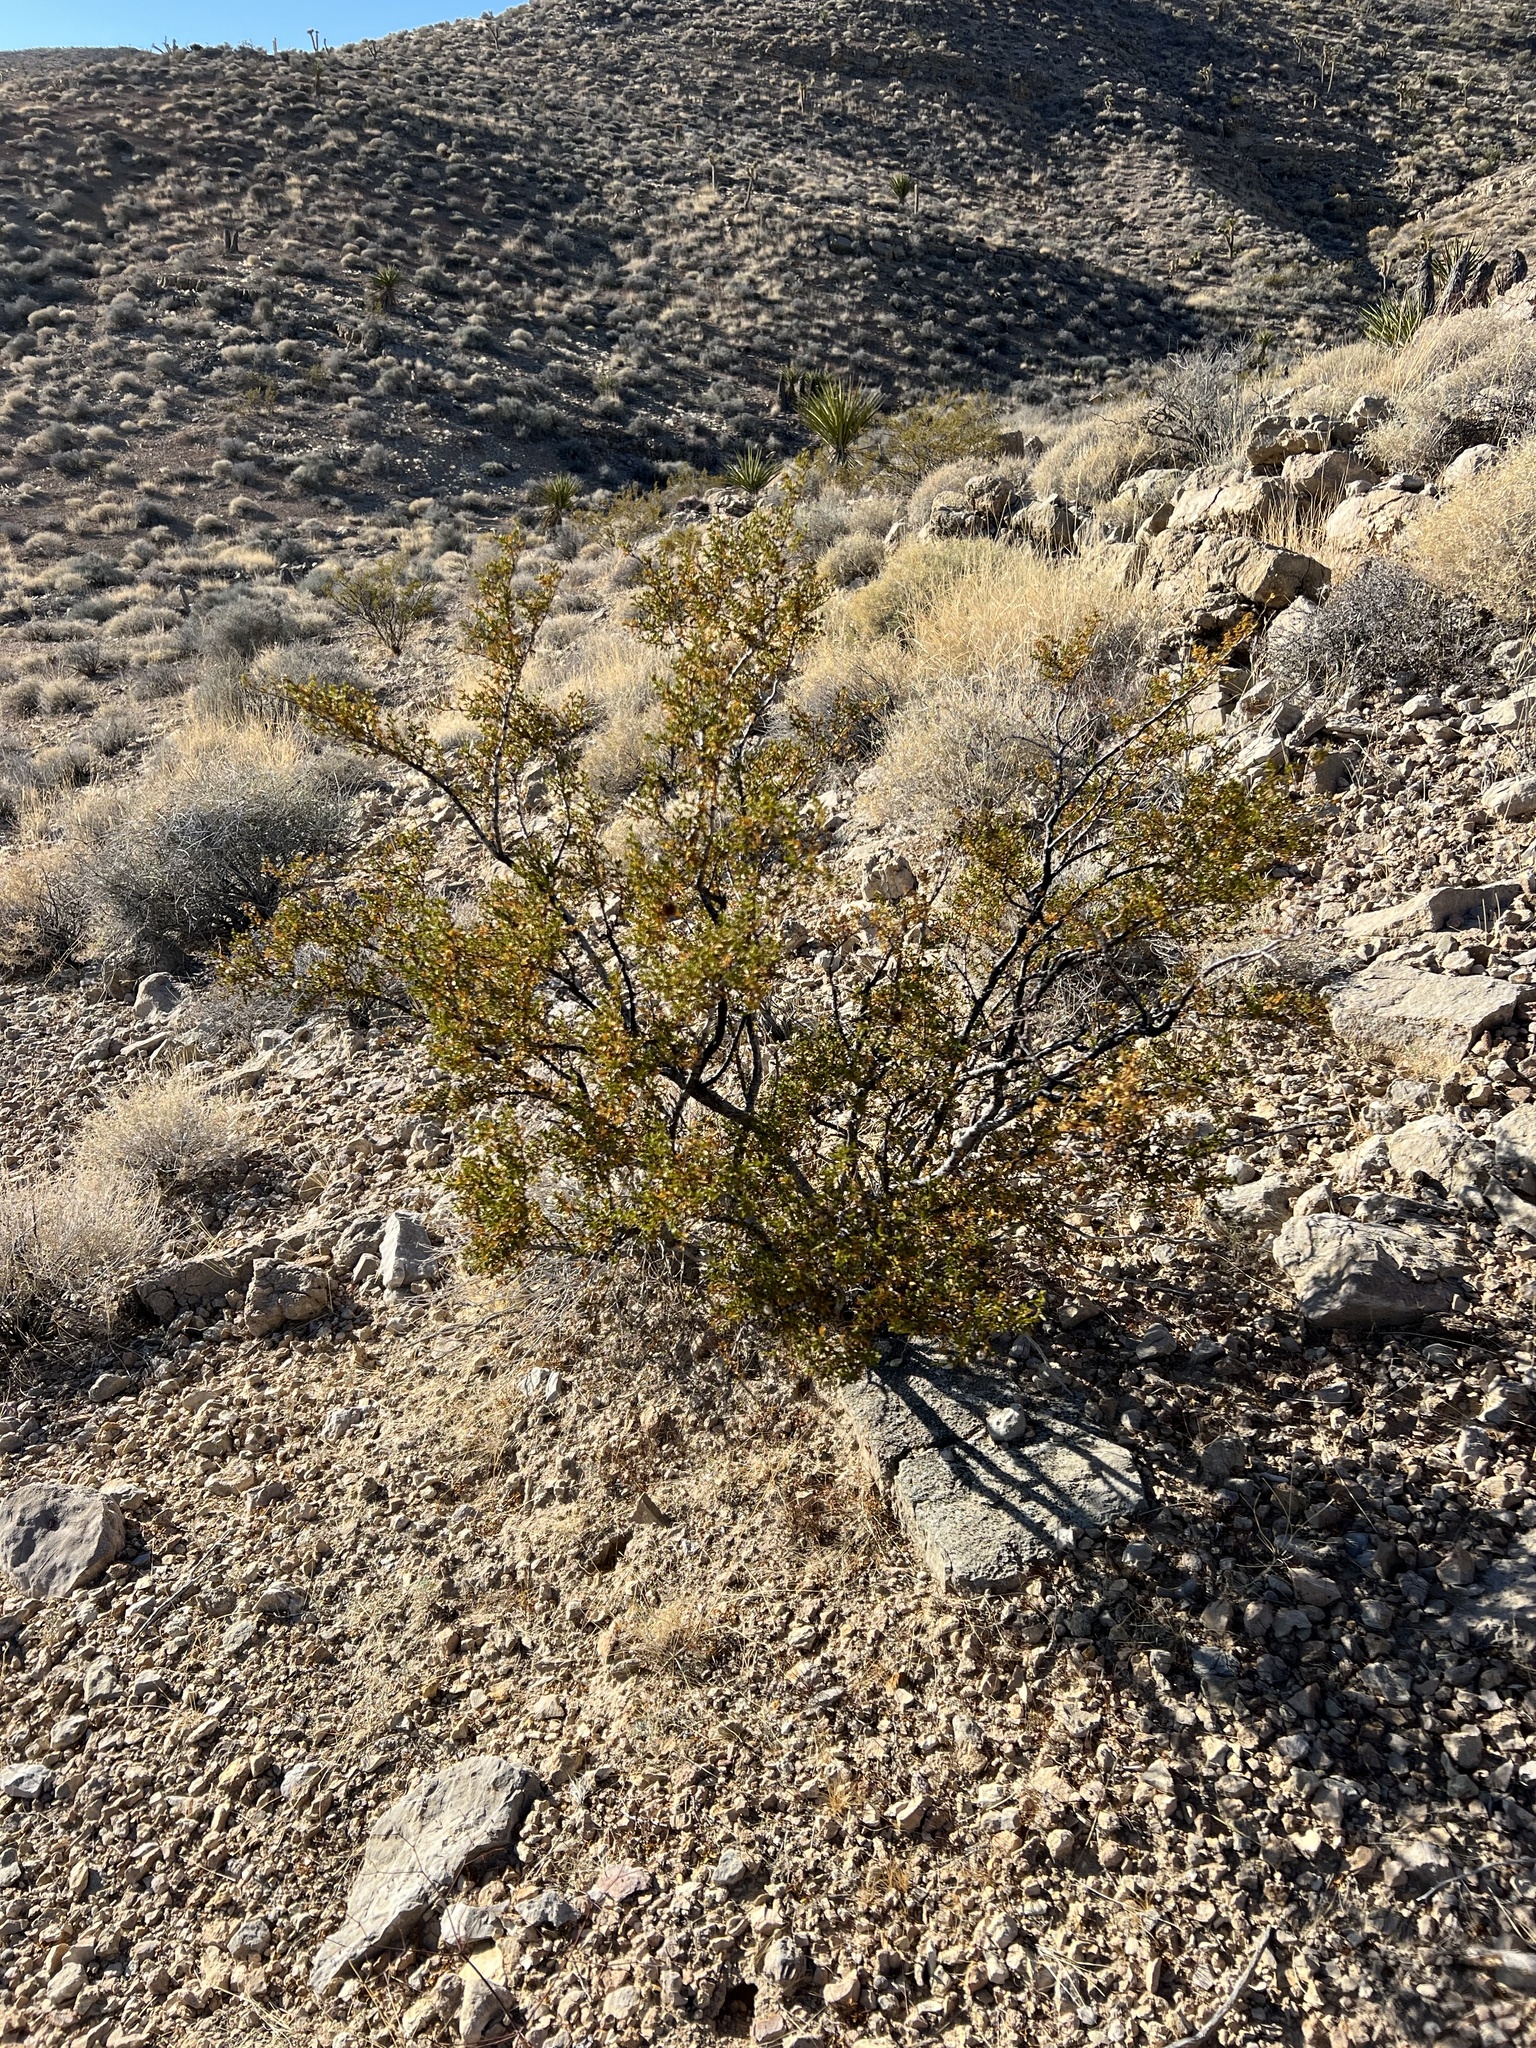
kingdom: Plantae
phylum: Tracheophyta
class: Magnoliopsida
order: Zygophyllales
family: Zygophyllaceae
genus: Larrea
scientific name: Larrea tridentata
